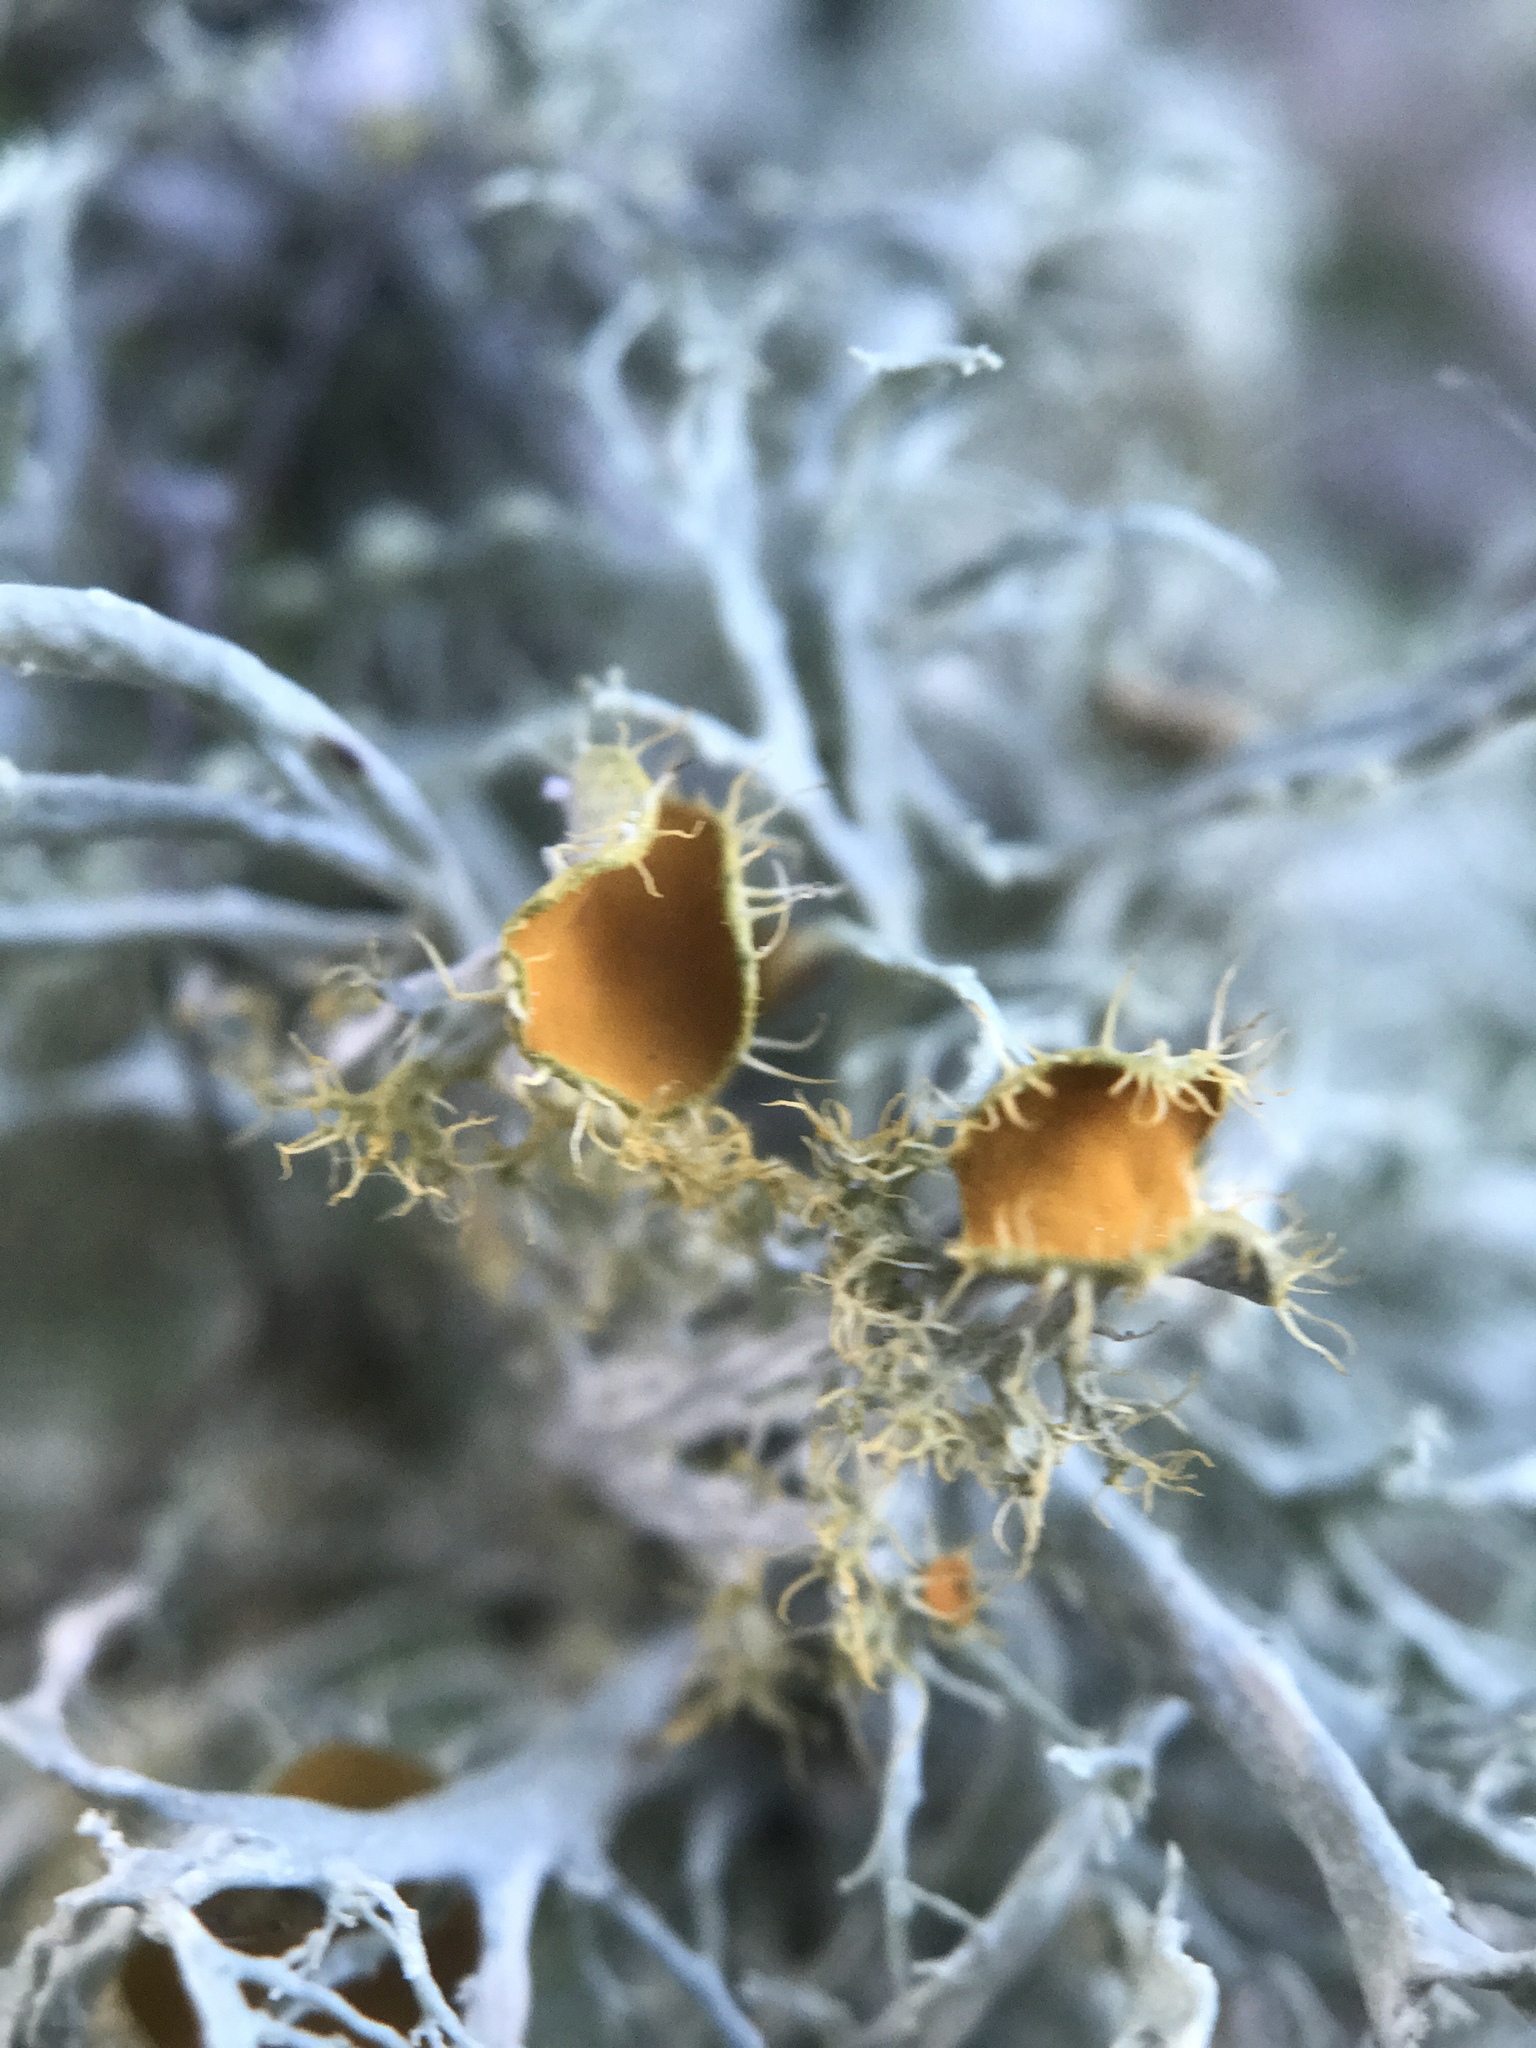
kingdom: Fungi
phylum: Ascomycota
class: Lecanoromycetes
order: Teloschistales
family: Teloschistaceae
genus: Niorma
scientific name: Niorma chrysophthalma
